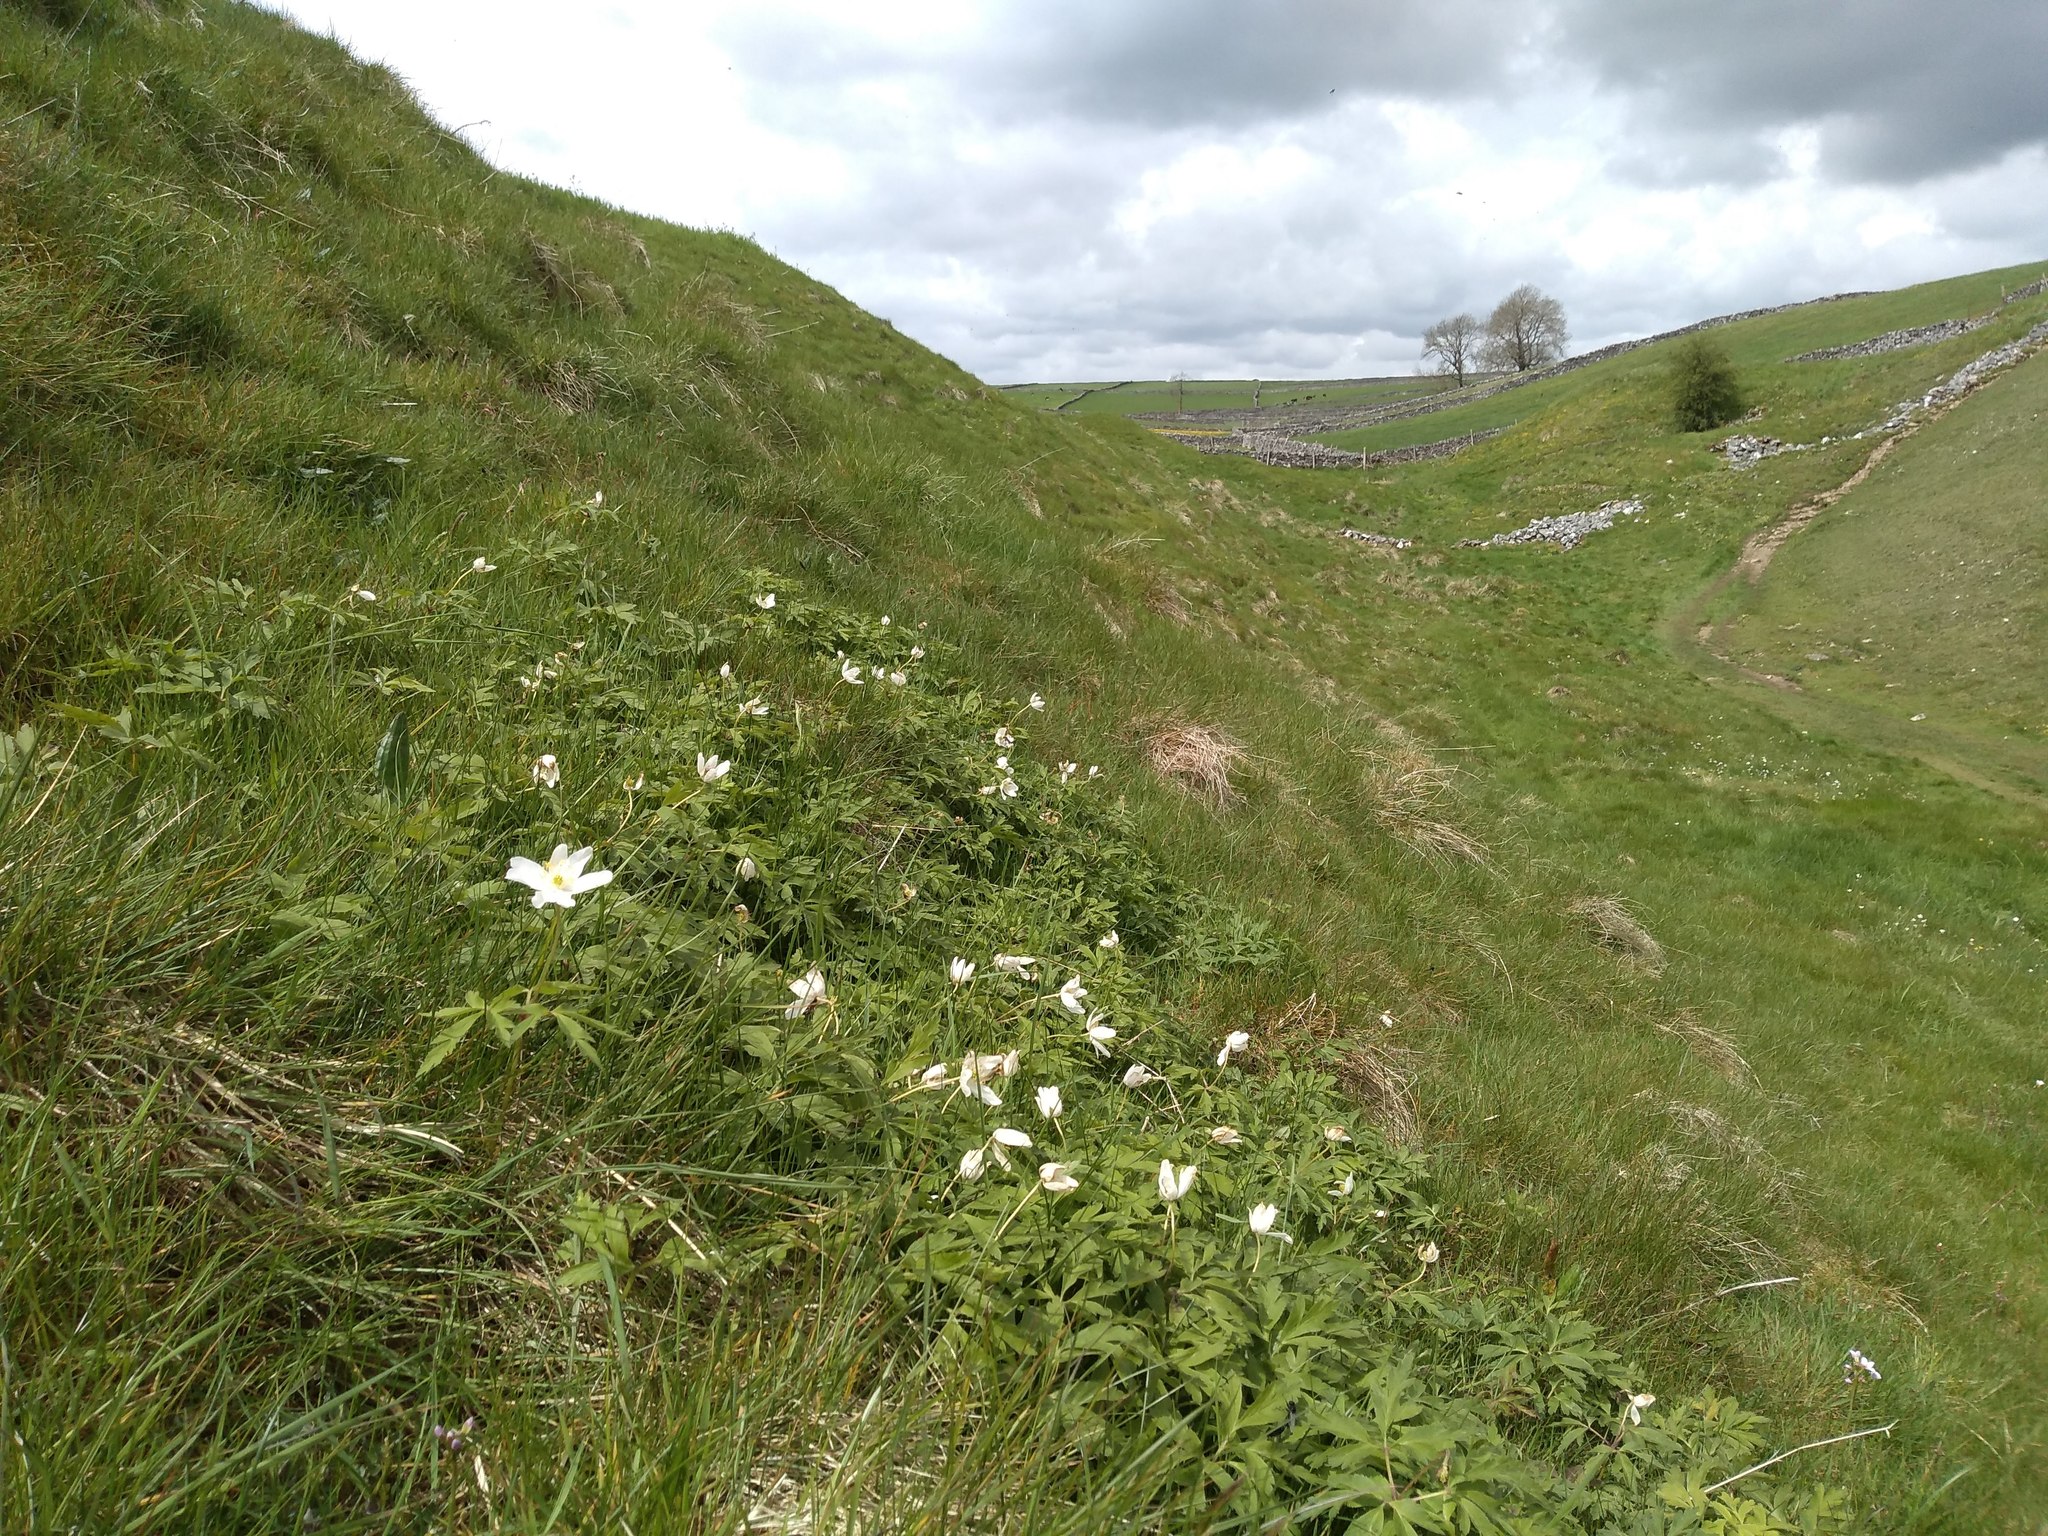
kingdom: Plantae
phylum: Tracheophyta
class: Magnoliopsida
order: Ranunculales
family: Ranunculaceae
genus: Anemone
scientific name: Anemone nemorosa
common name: Wood anemone
